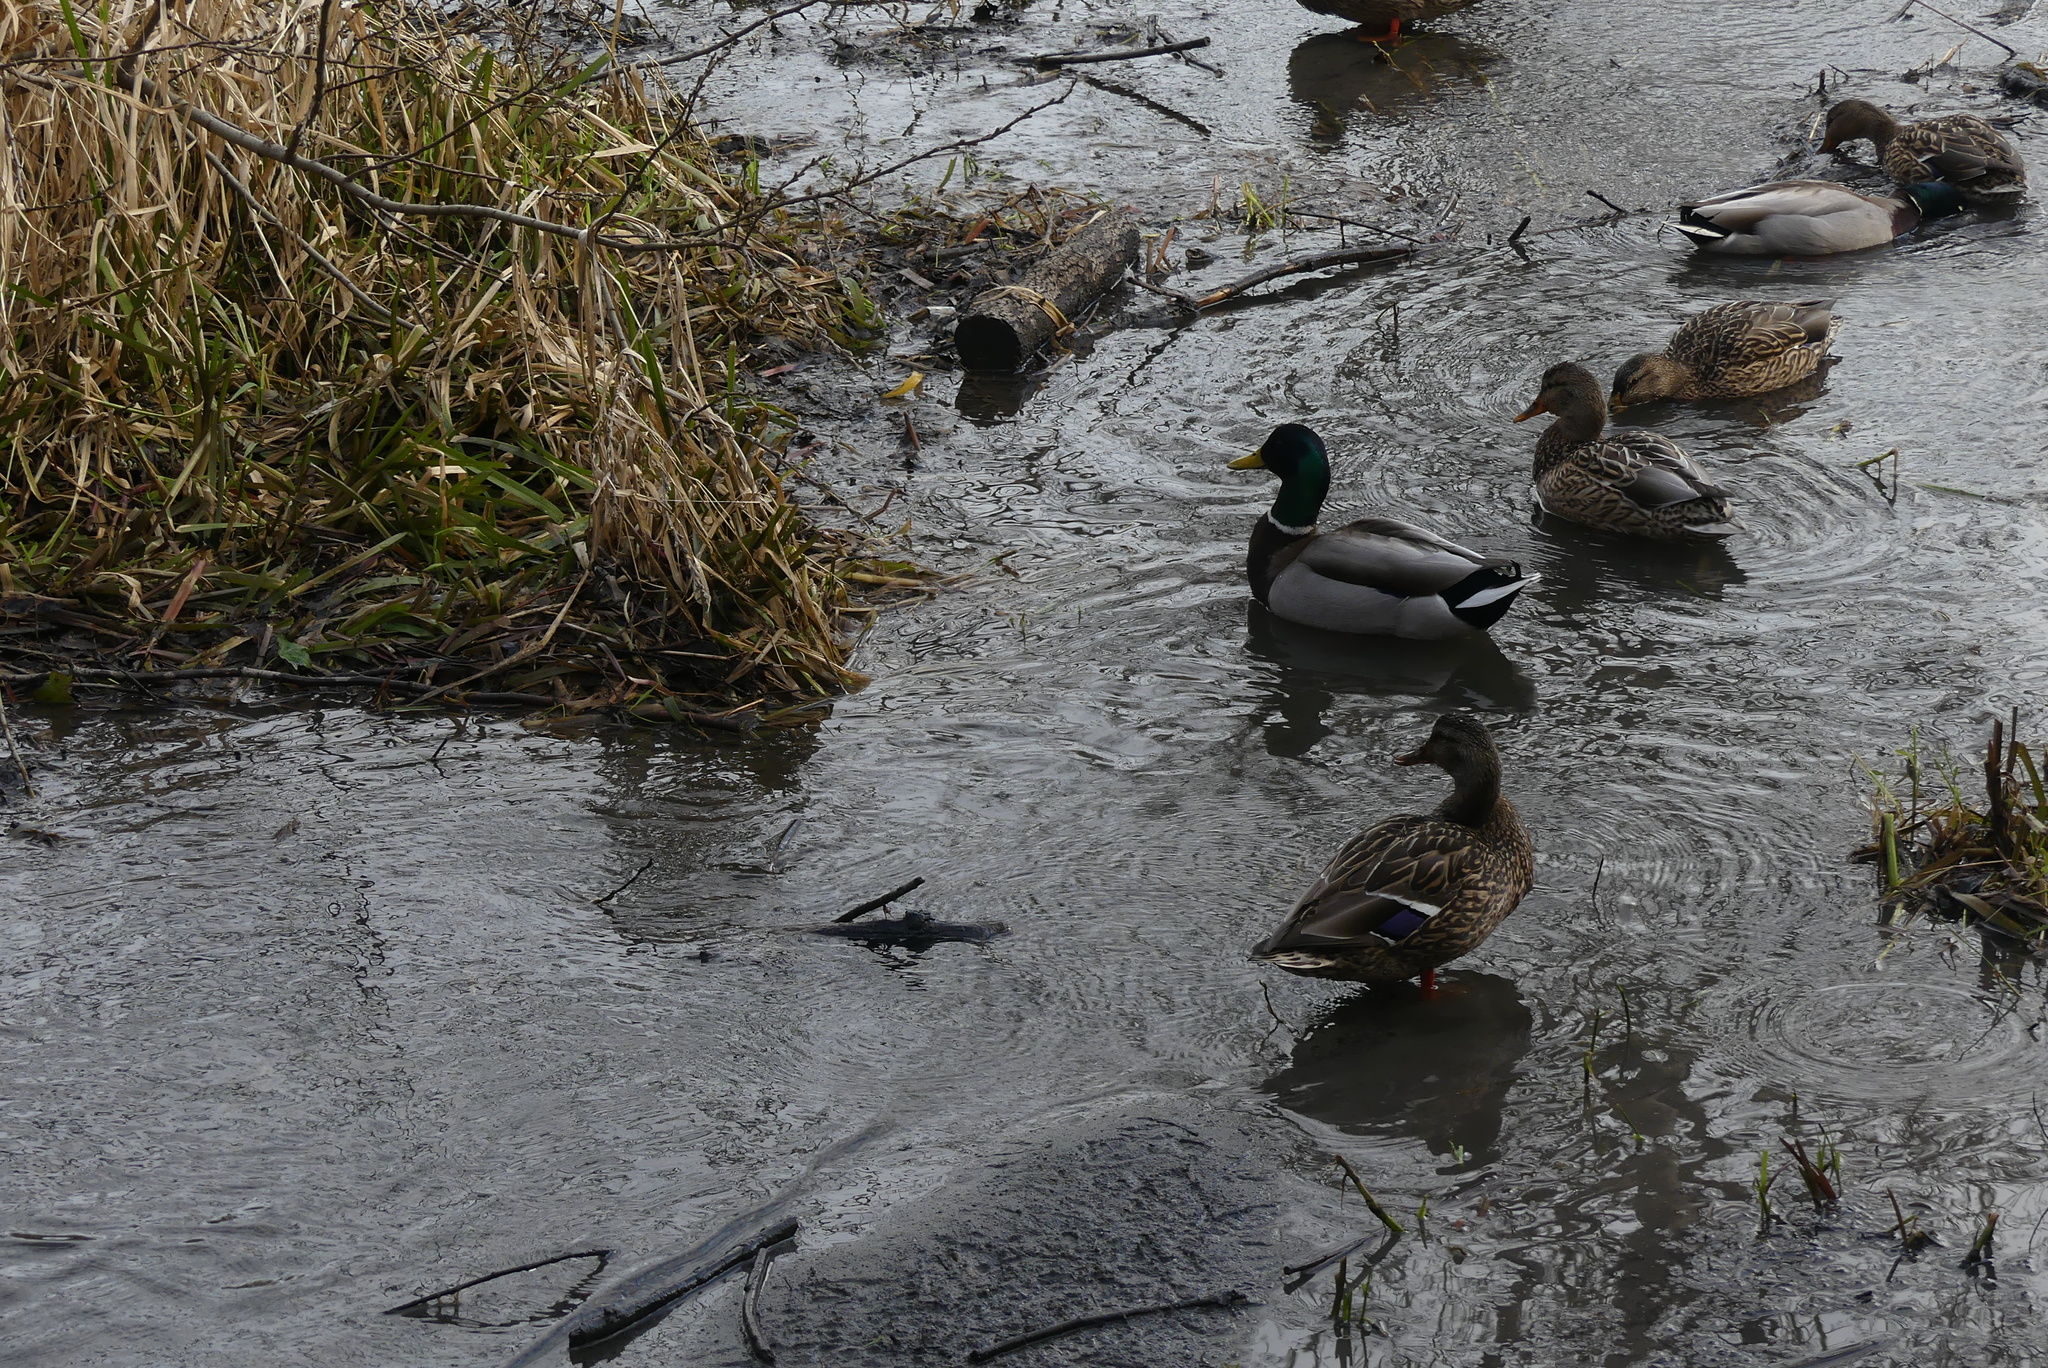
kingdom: Animalia
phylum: Chordata
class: Aves
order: Anseriformes
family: Anatidae
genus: Anas
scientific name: Anas platyrhynchos
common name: Mallard
